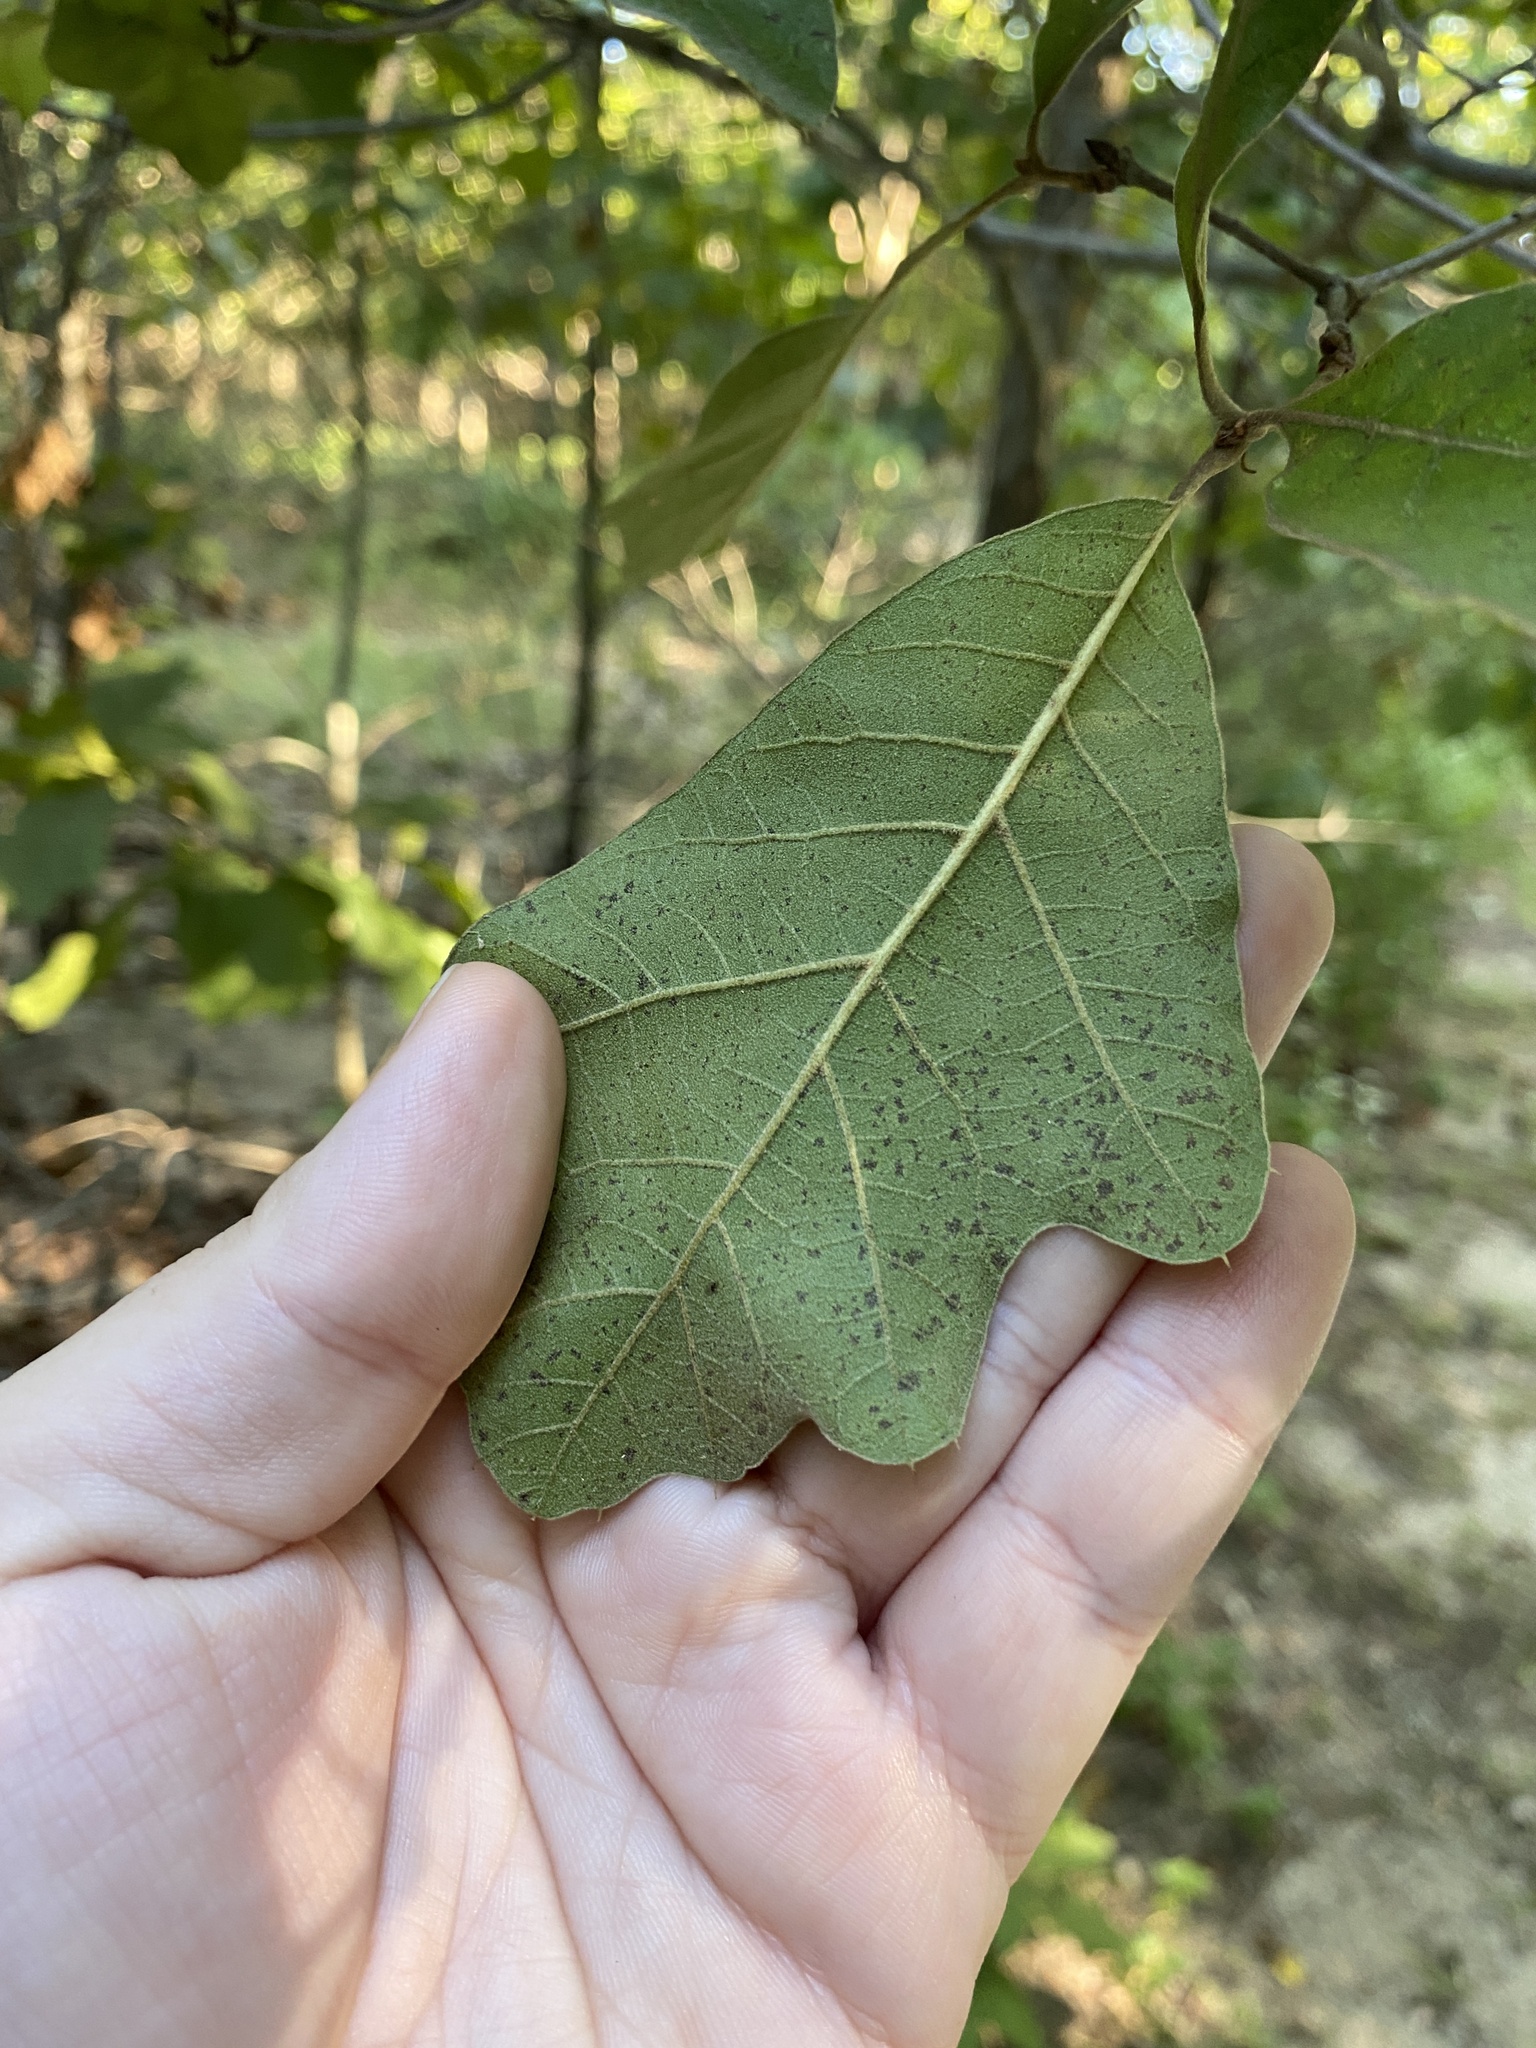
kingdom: Plantae
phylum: Tracheophyta
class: Magnoliopsida
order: Fagales
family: Fagaceae
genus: Quercus
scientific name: Quercus falcata
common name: Southern red oak
